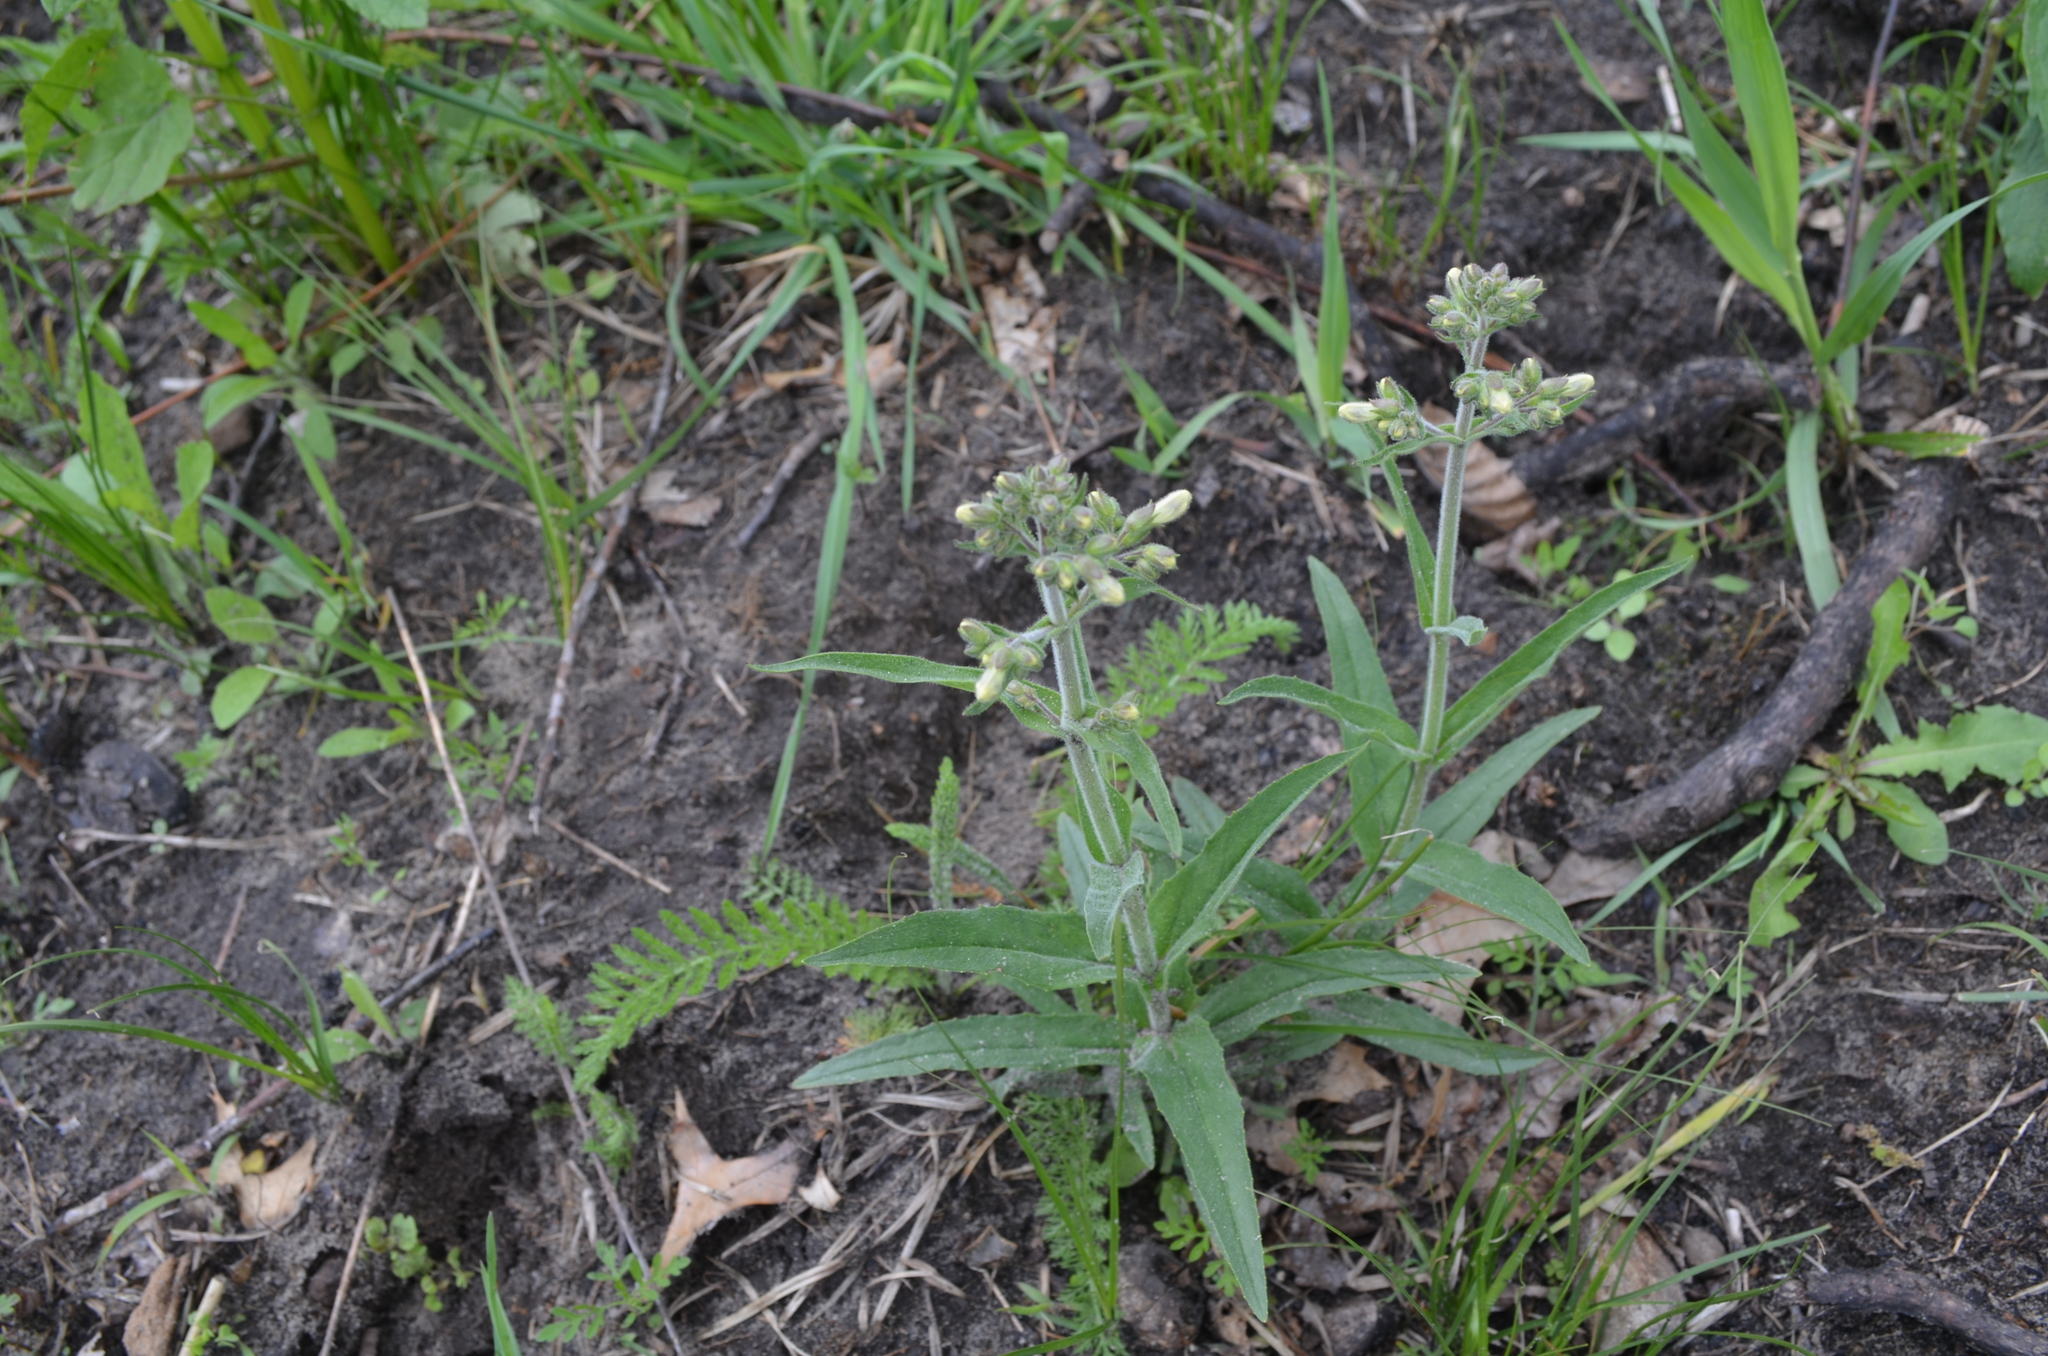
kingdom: Plantae
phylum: Tracheophyta
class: Magnoliopsida
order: Lamiales
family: Plantaginaceae
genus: Penstemon
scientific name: Penstemon pallidus
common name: Pale beardtongue
